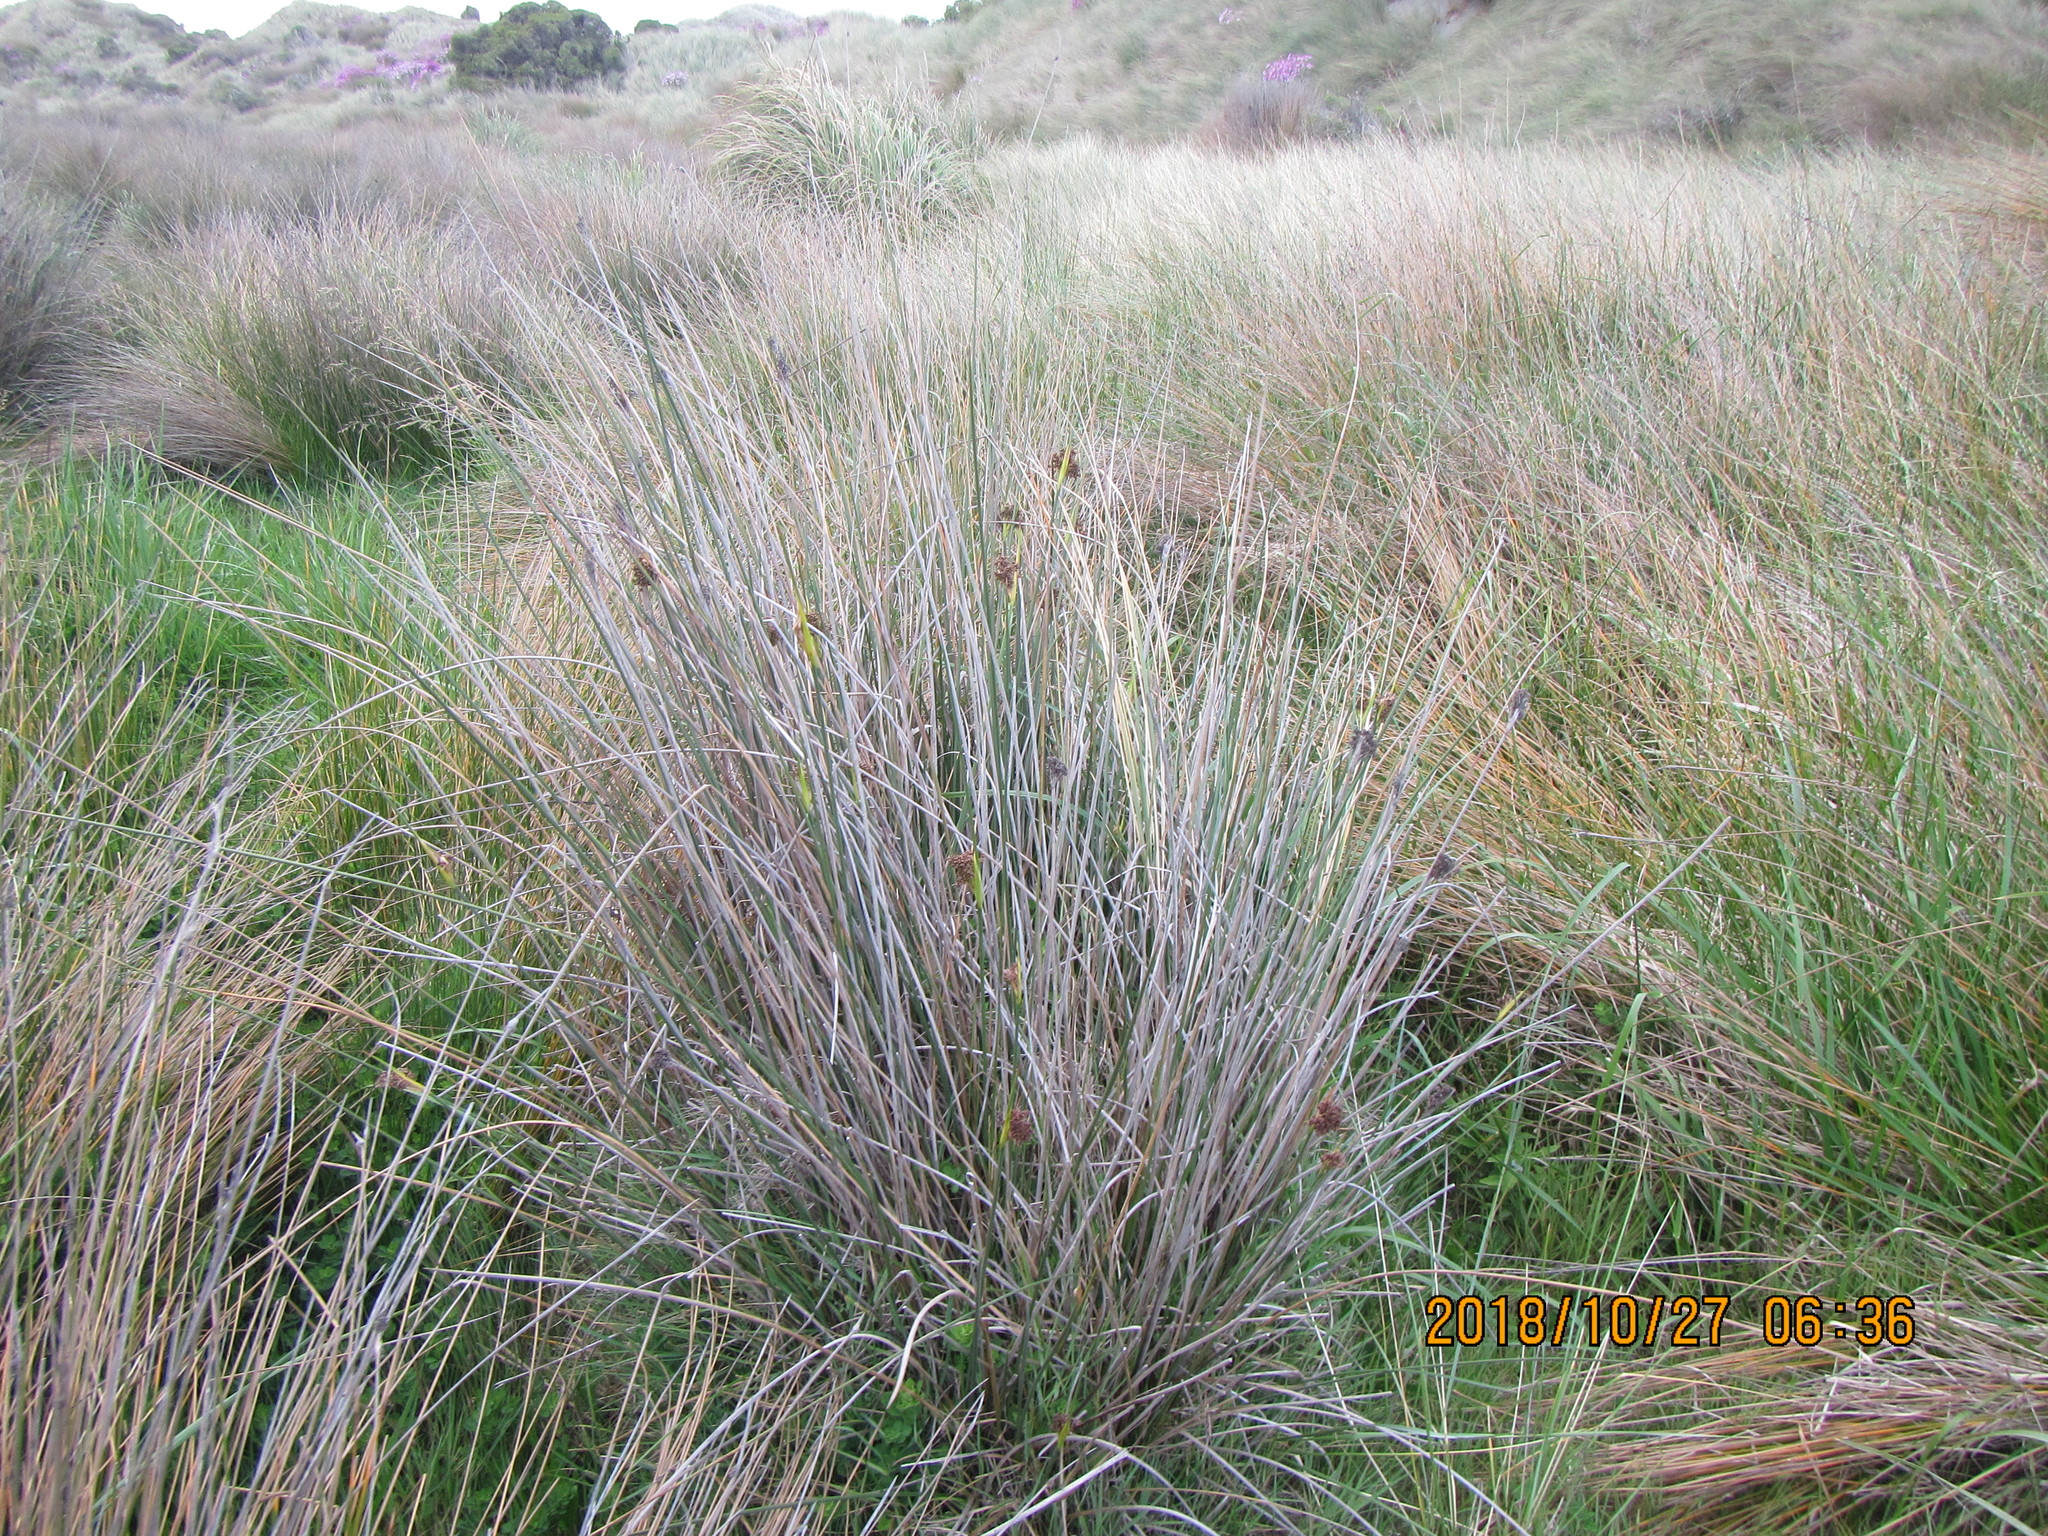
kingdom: Plantae
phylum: Tracheophyta
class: Liliopsida
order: Poales
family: Juncaceae
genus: Juncus
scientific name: Juncus acutus
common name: Sharp rush
